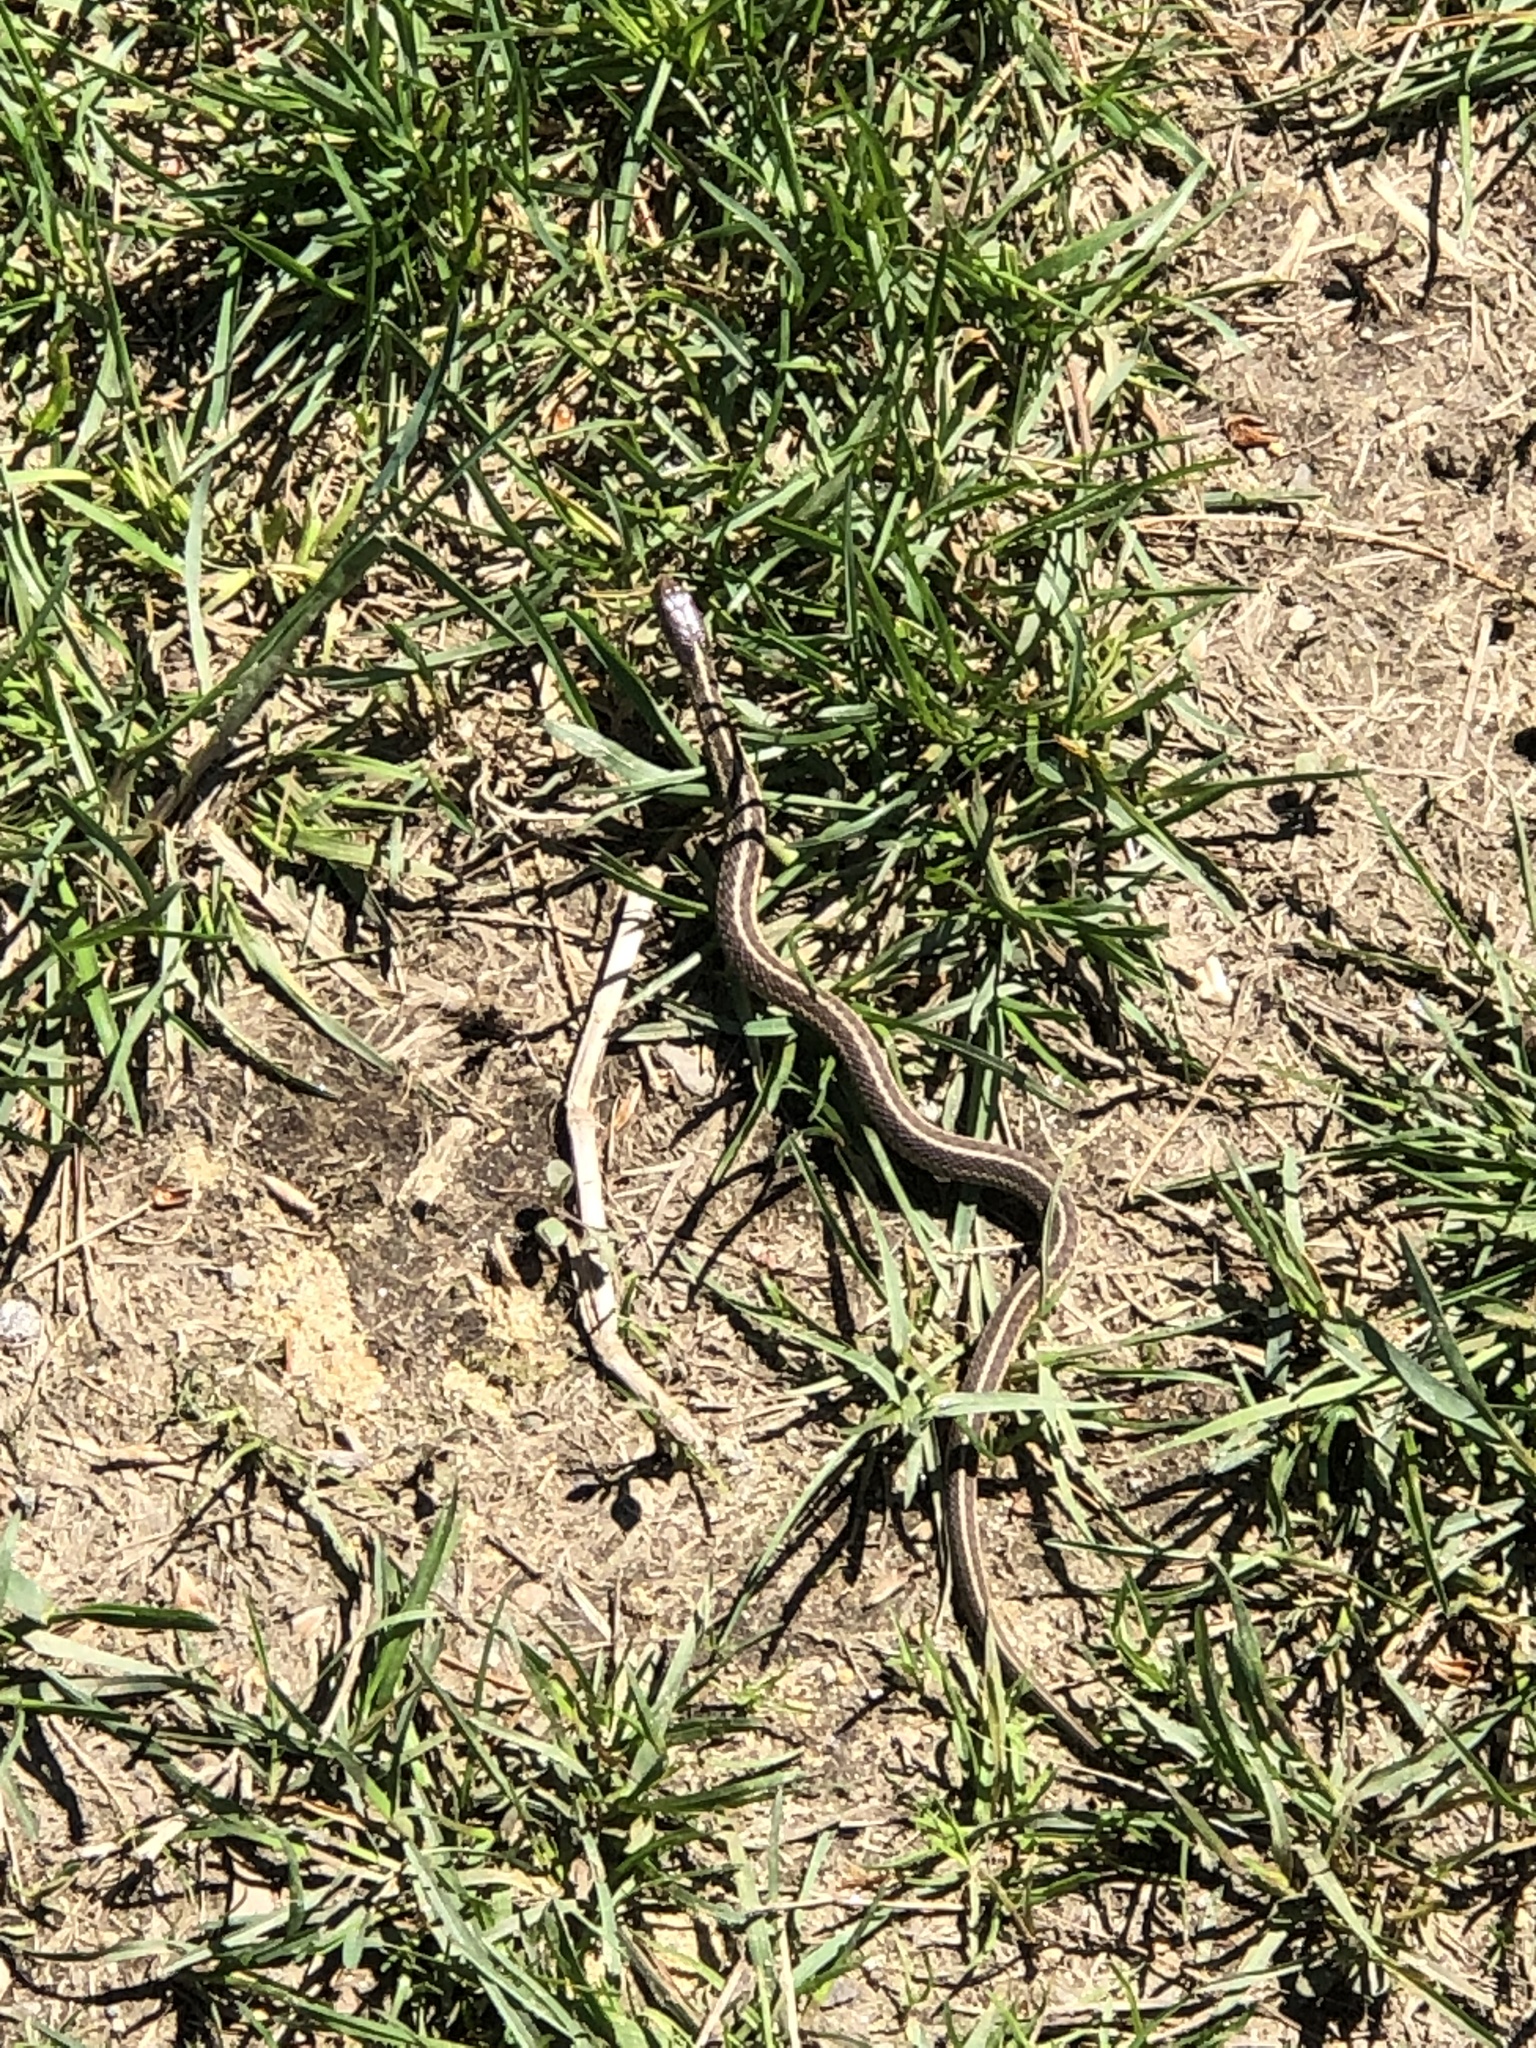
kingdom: Animalia
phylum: Chordata
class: Squamata
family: Colubridae
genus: Thamnophis
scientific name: Thamnophis sirtalis
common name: Common garter snake
